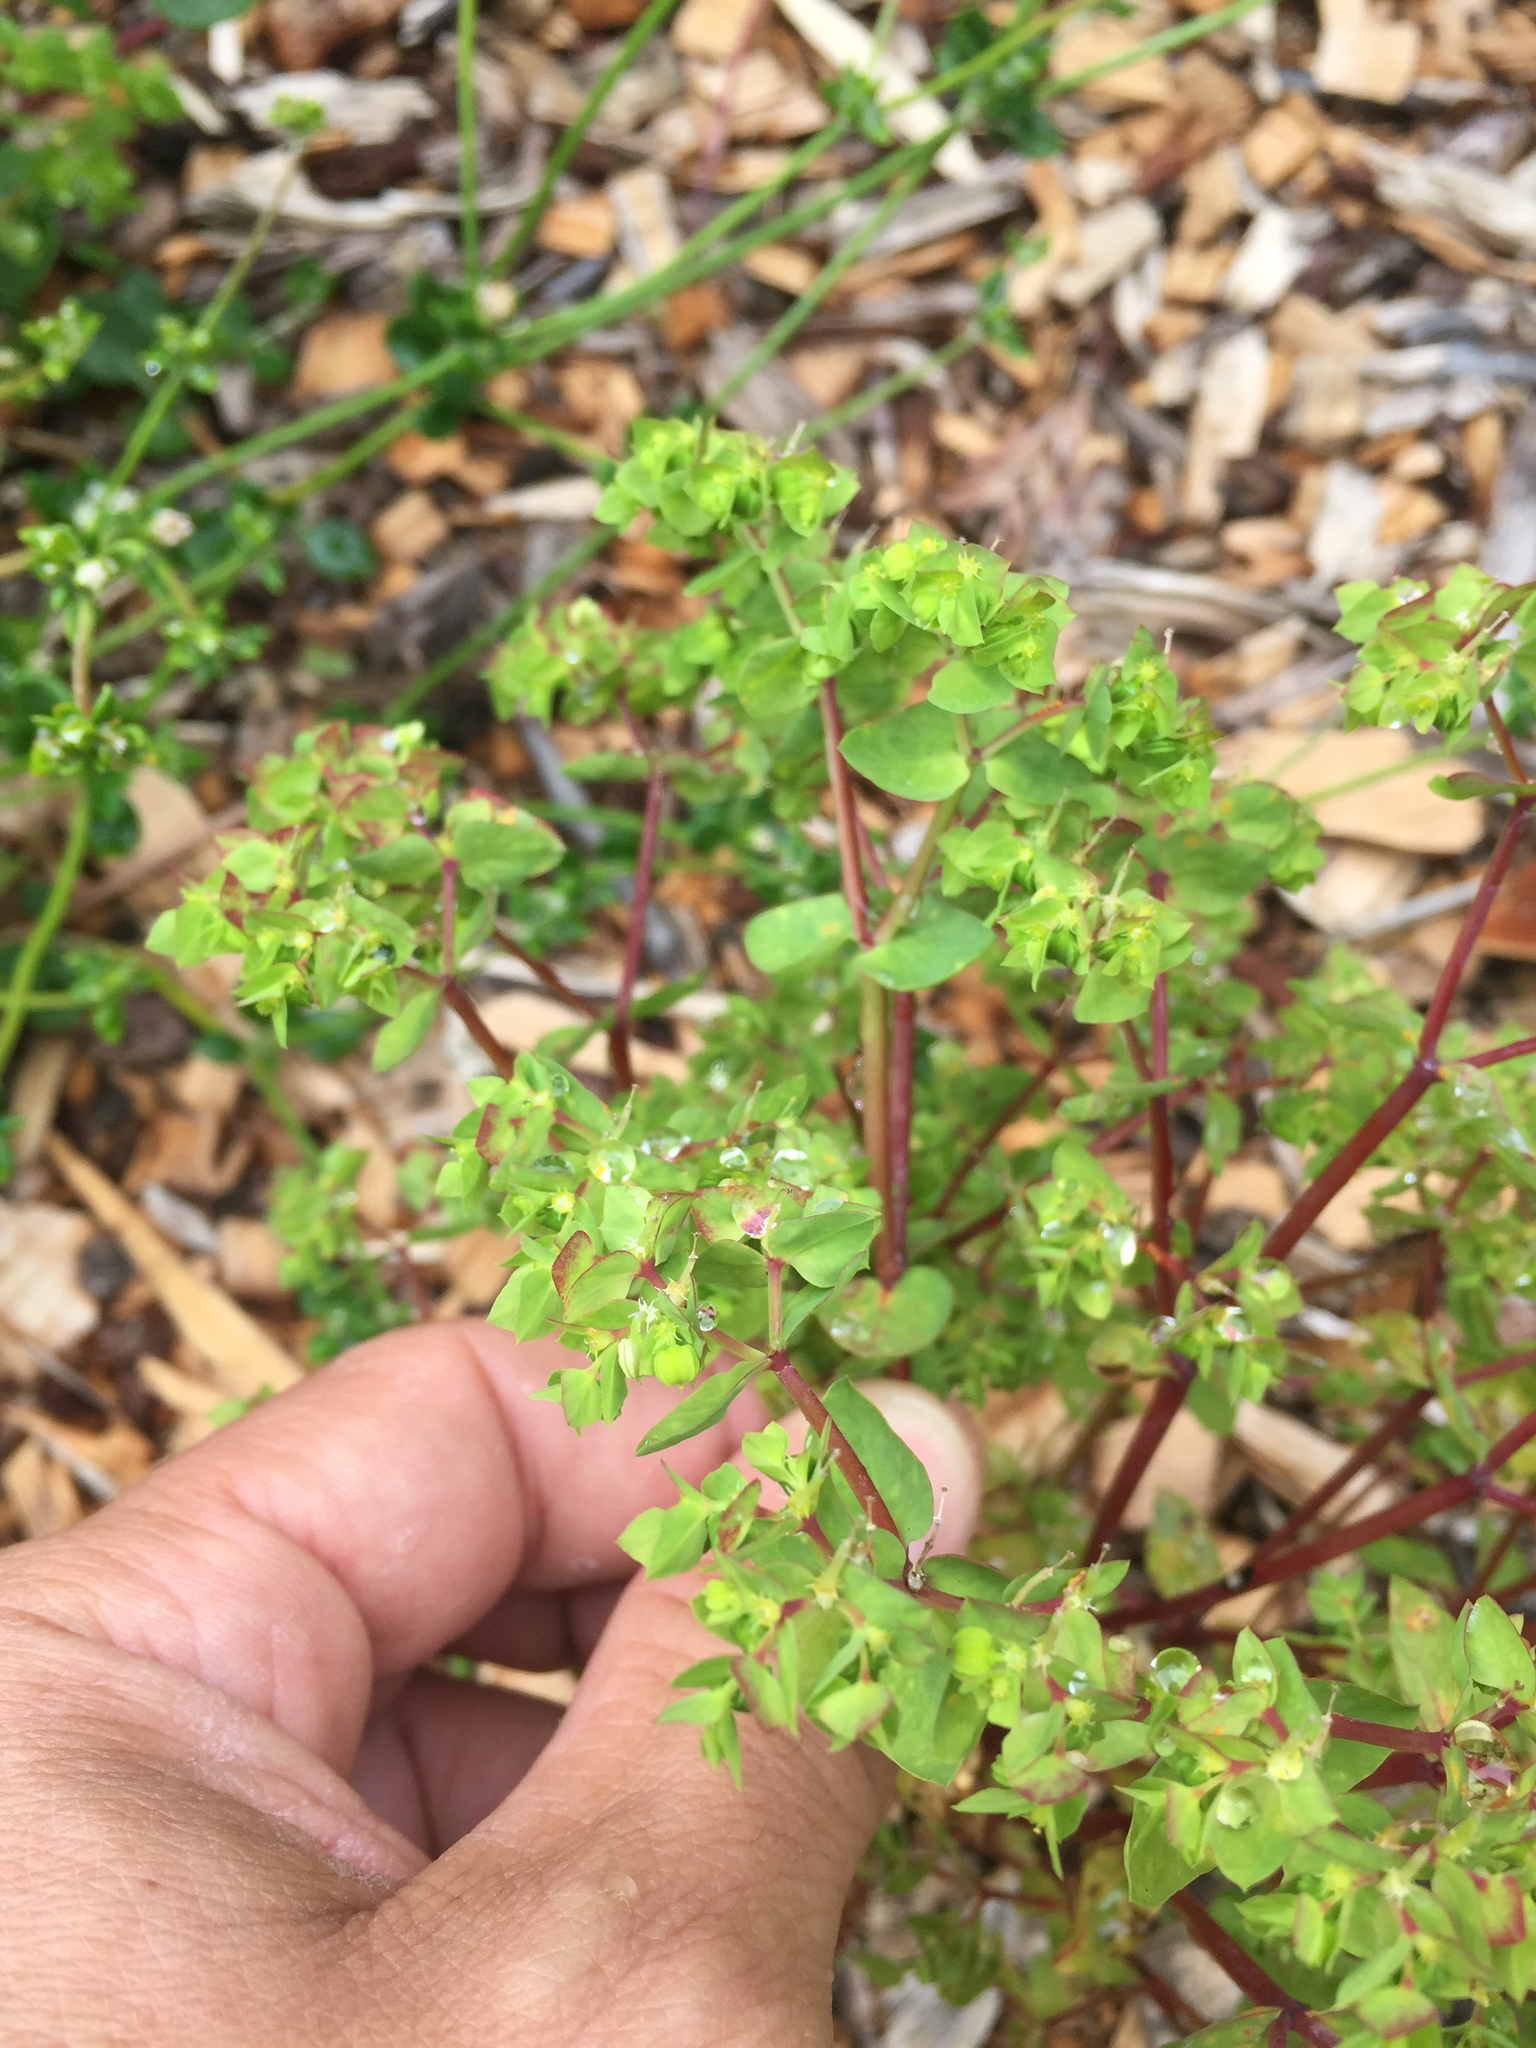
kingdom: Plantae
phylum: Tracheophyta
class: Magnoliopsida
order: Malpighiales
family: Euphorbiaceae
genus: Euphorbia
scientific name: Euphorbia peplus
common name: Petty spurge
